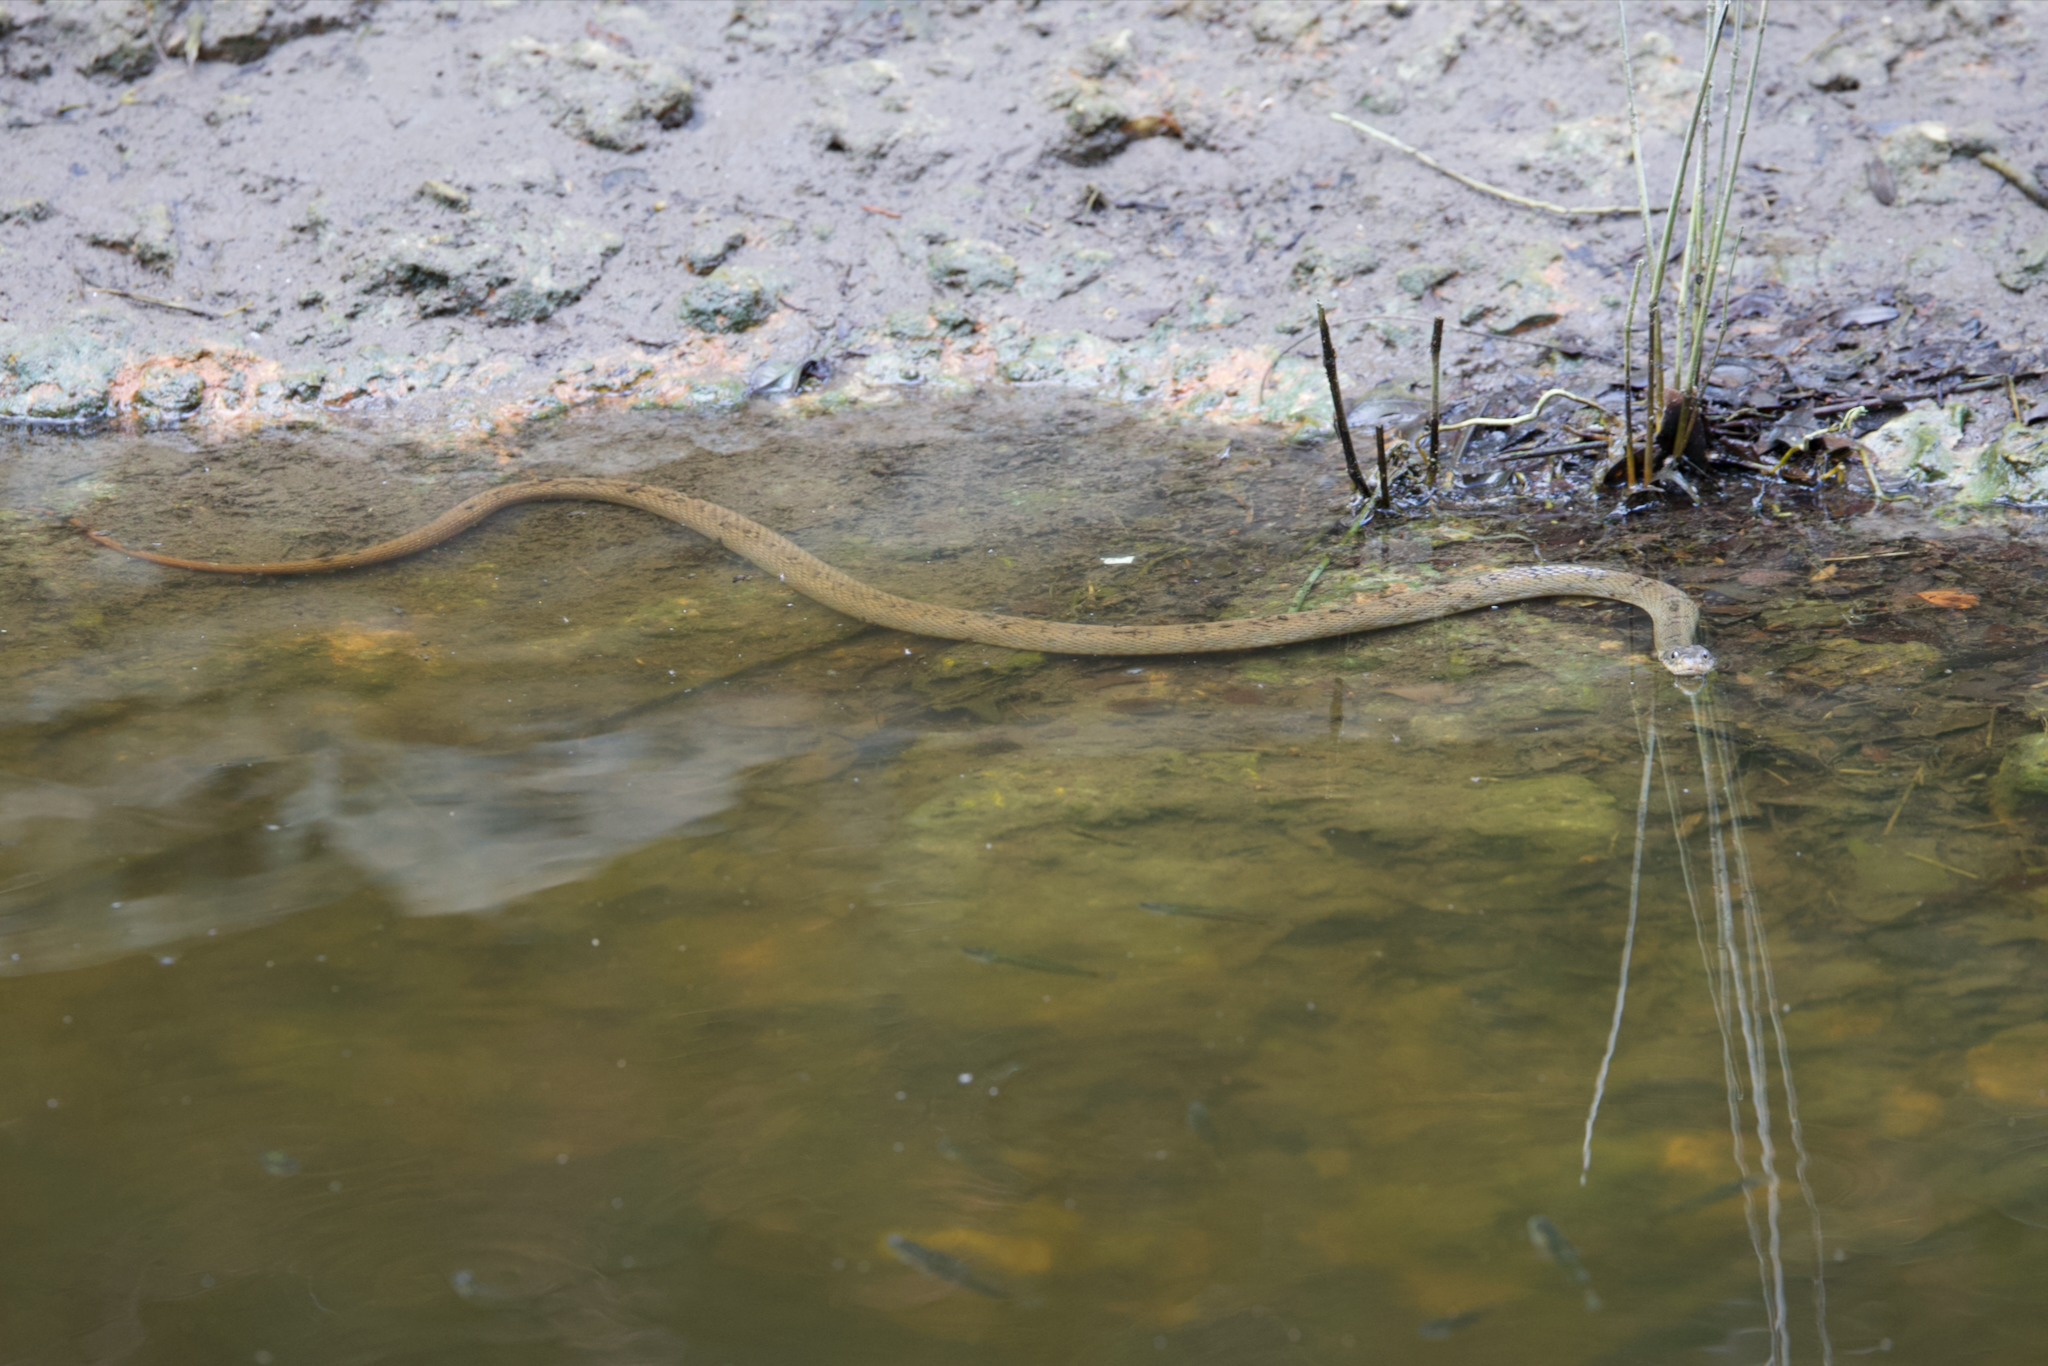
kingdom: Animalia
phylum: Chordata
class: Squamata
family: Colubridae
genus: Nerodia
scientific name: Nerodia erythrogaster
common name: Plainbelly water snake
